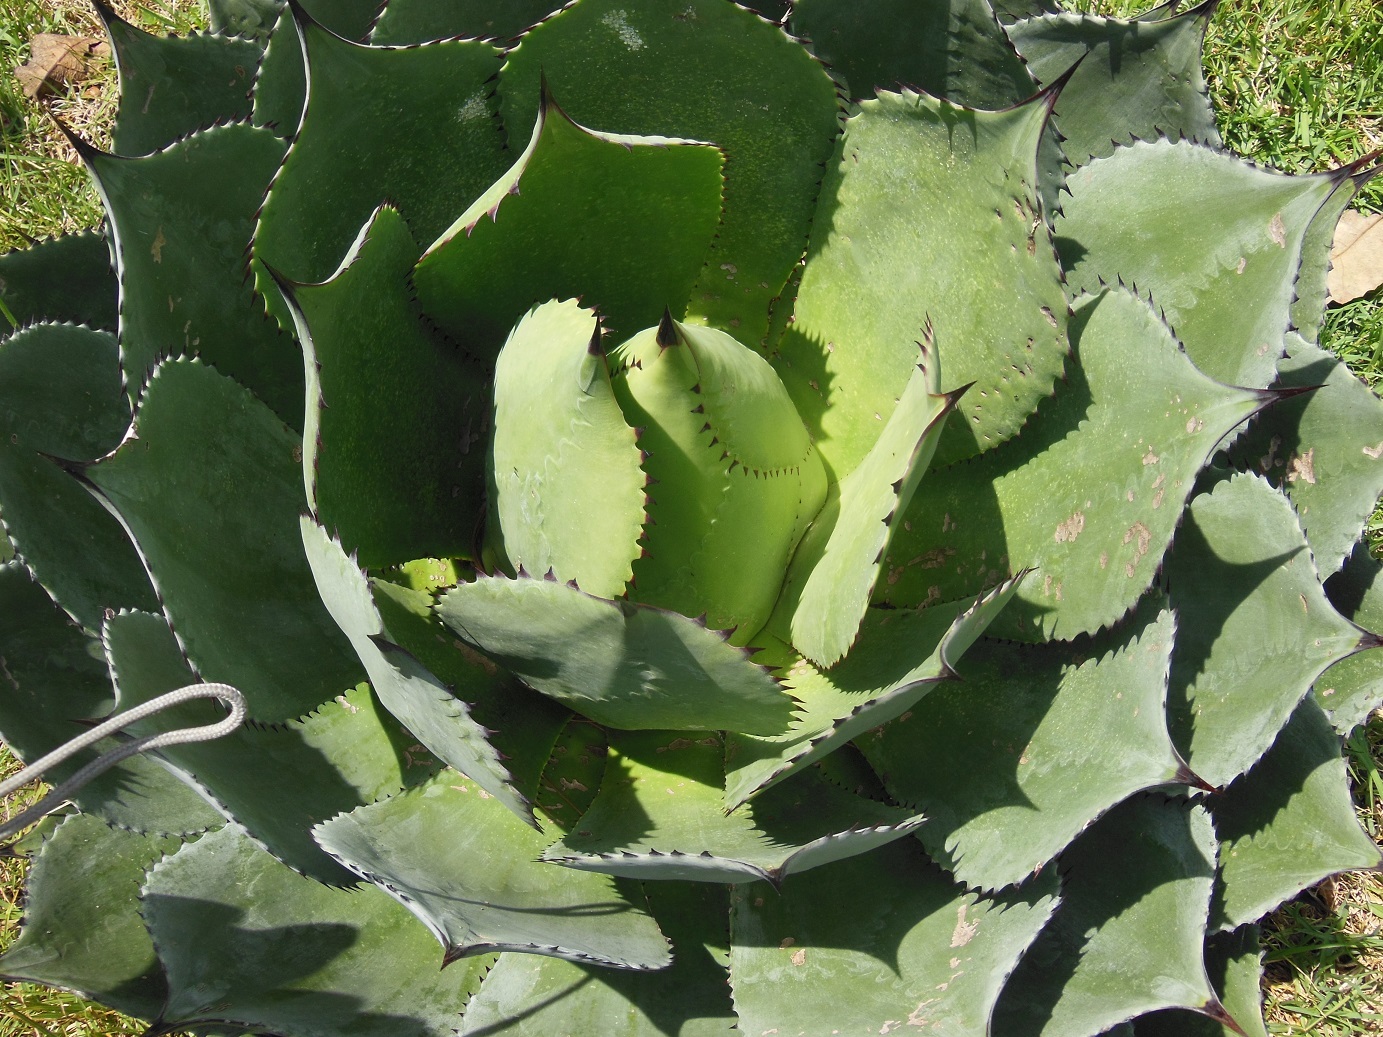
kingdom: Plantae
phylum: Tracheophyta
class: Liliopsida
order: Asparagales
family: Asparagaceae
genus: Agave
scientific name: Agave chiapensis
